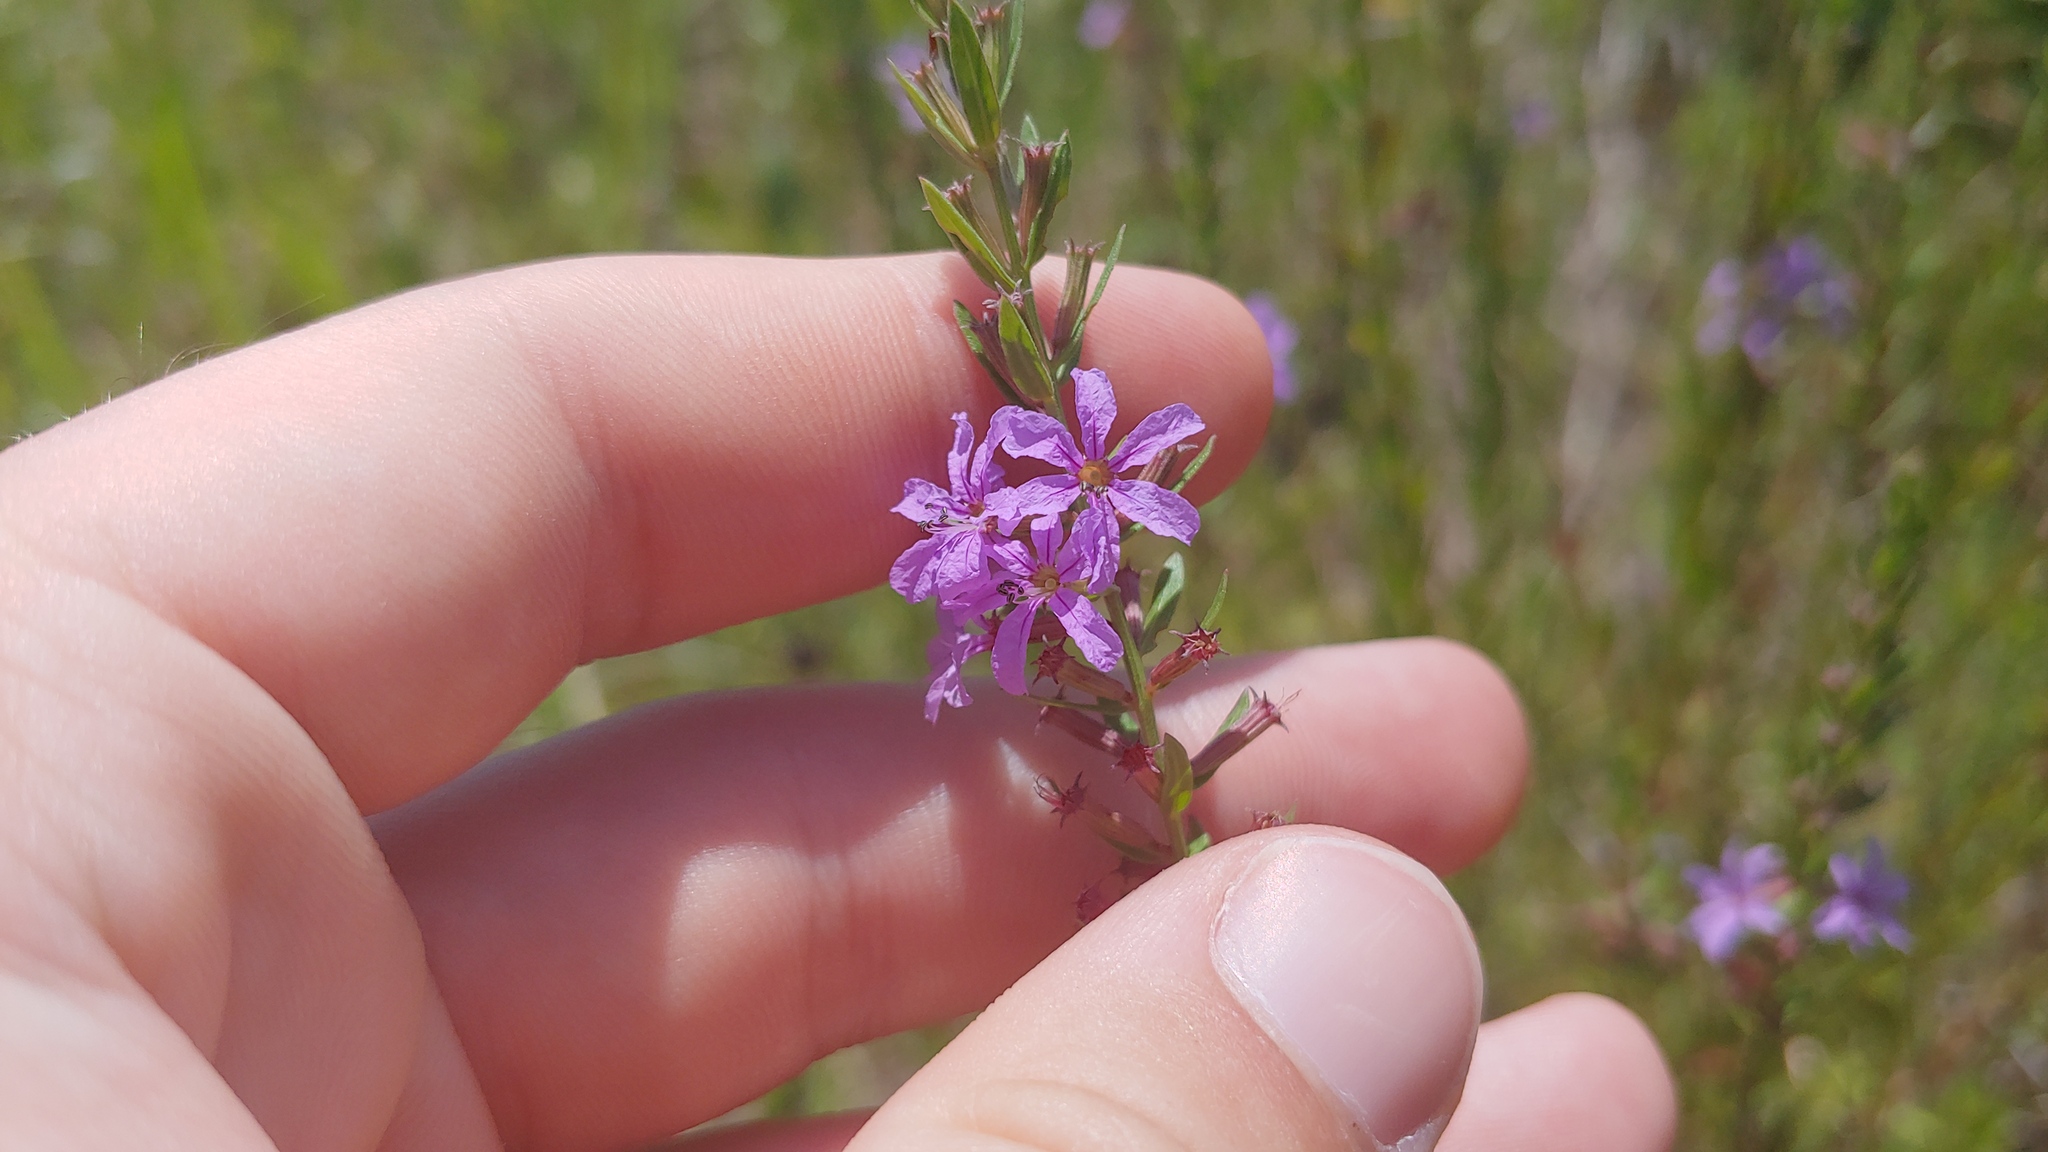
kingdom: Plantae
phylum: Tracheophyta
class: Magnoliopsida
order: Myrtales
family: Lythraceae
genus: Lythrum
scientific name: Lythrum alatum
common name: Winged loosestrife
